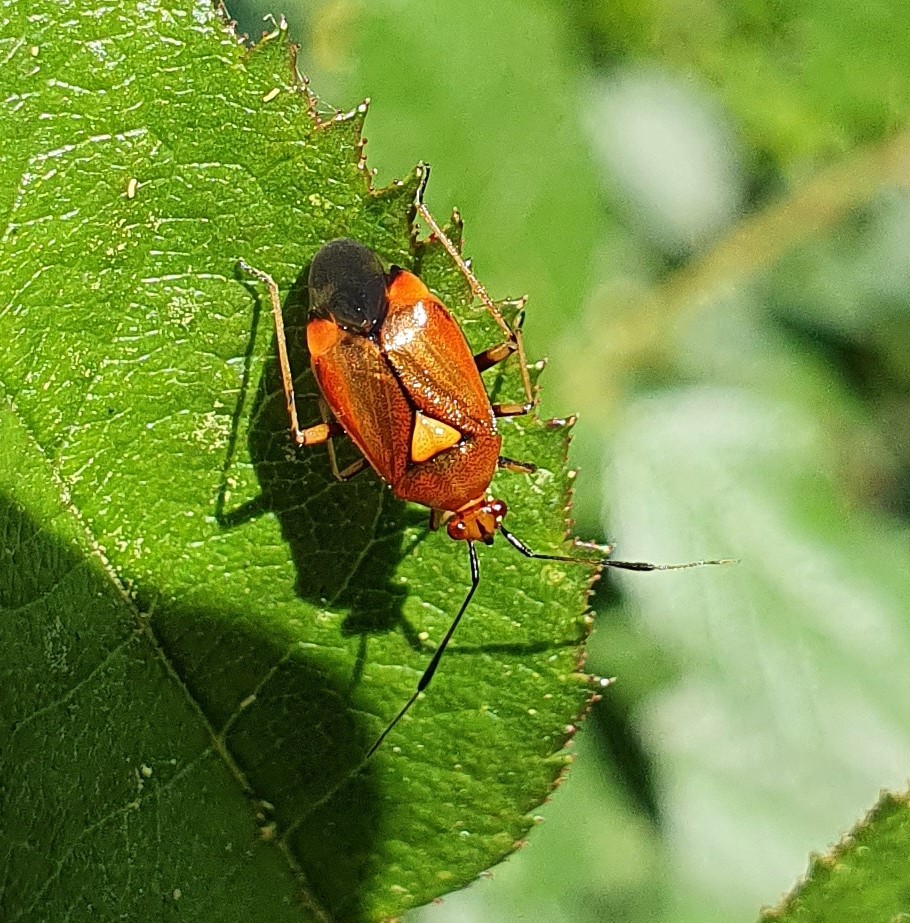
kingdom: Animalia
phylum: Arthropoda
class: Insecta
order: Hemiptera
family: Miridae
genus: Deraeocoris
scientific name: Deraeocoris ruber
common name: Plant bug
